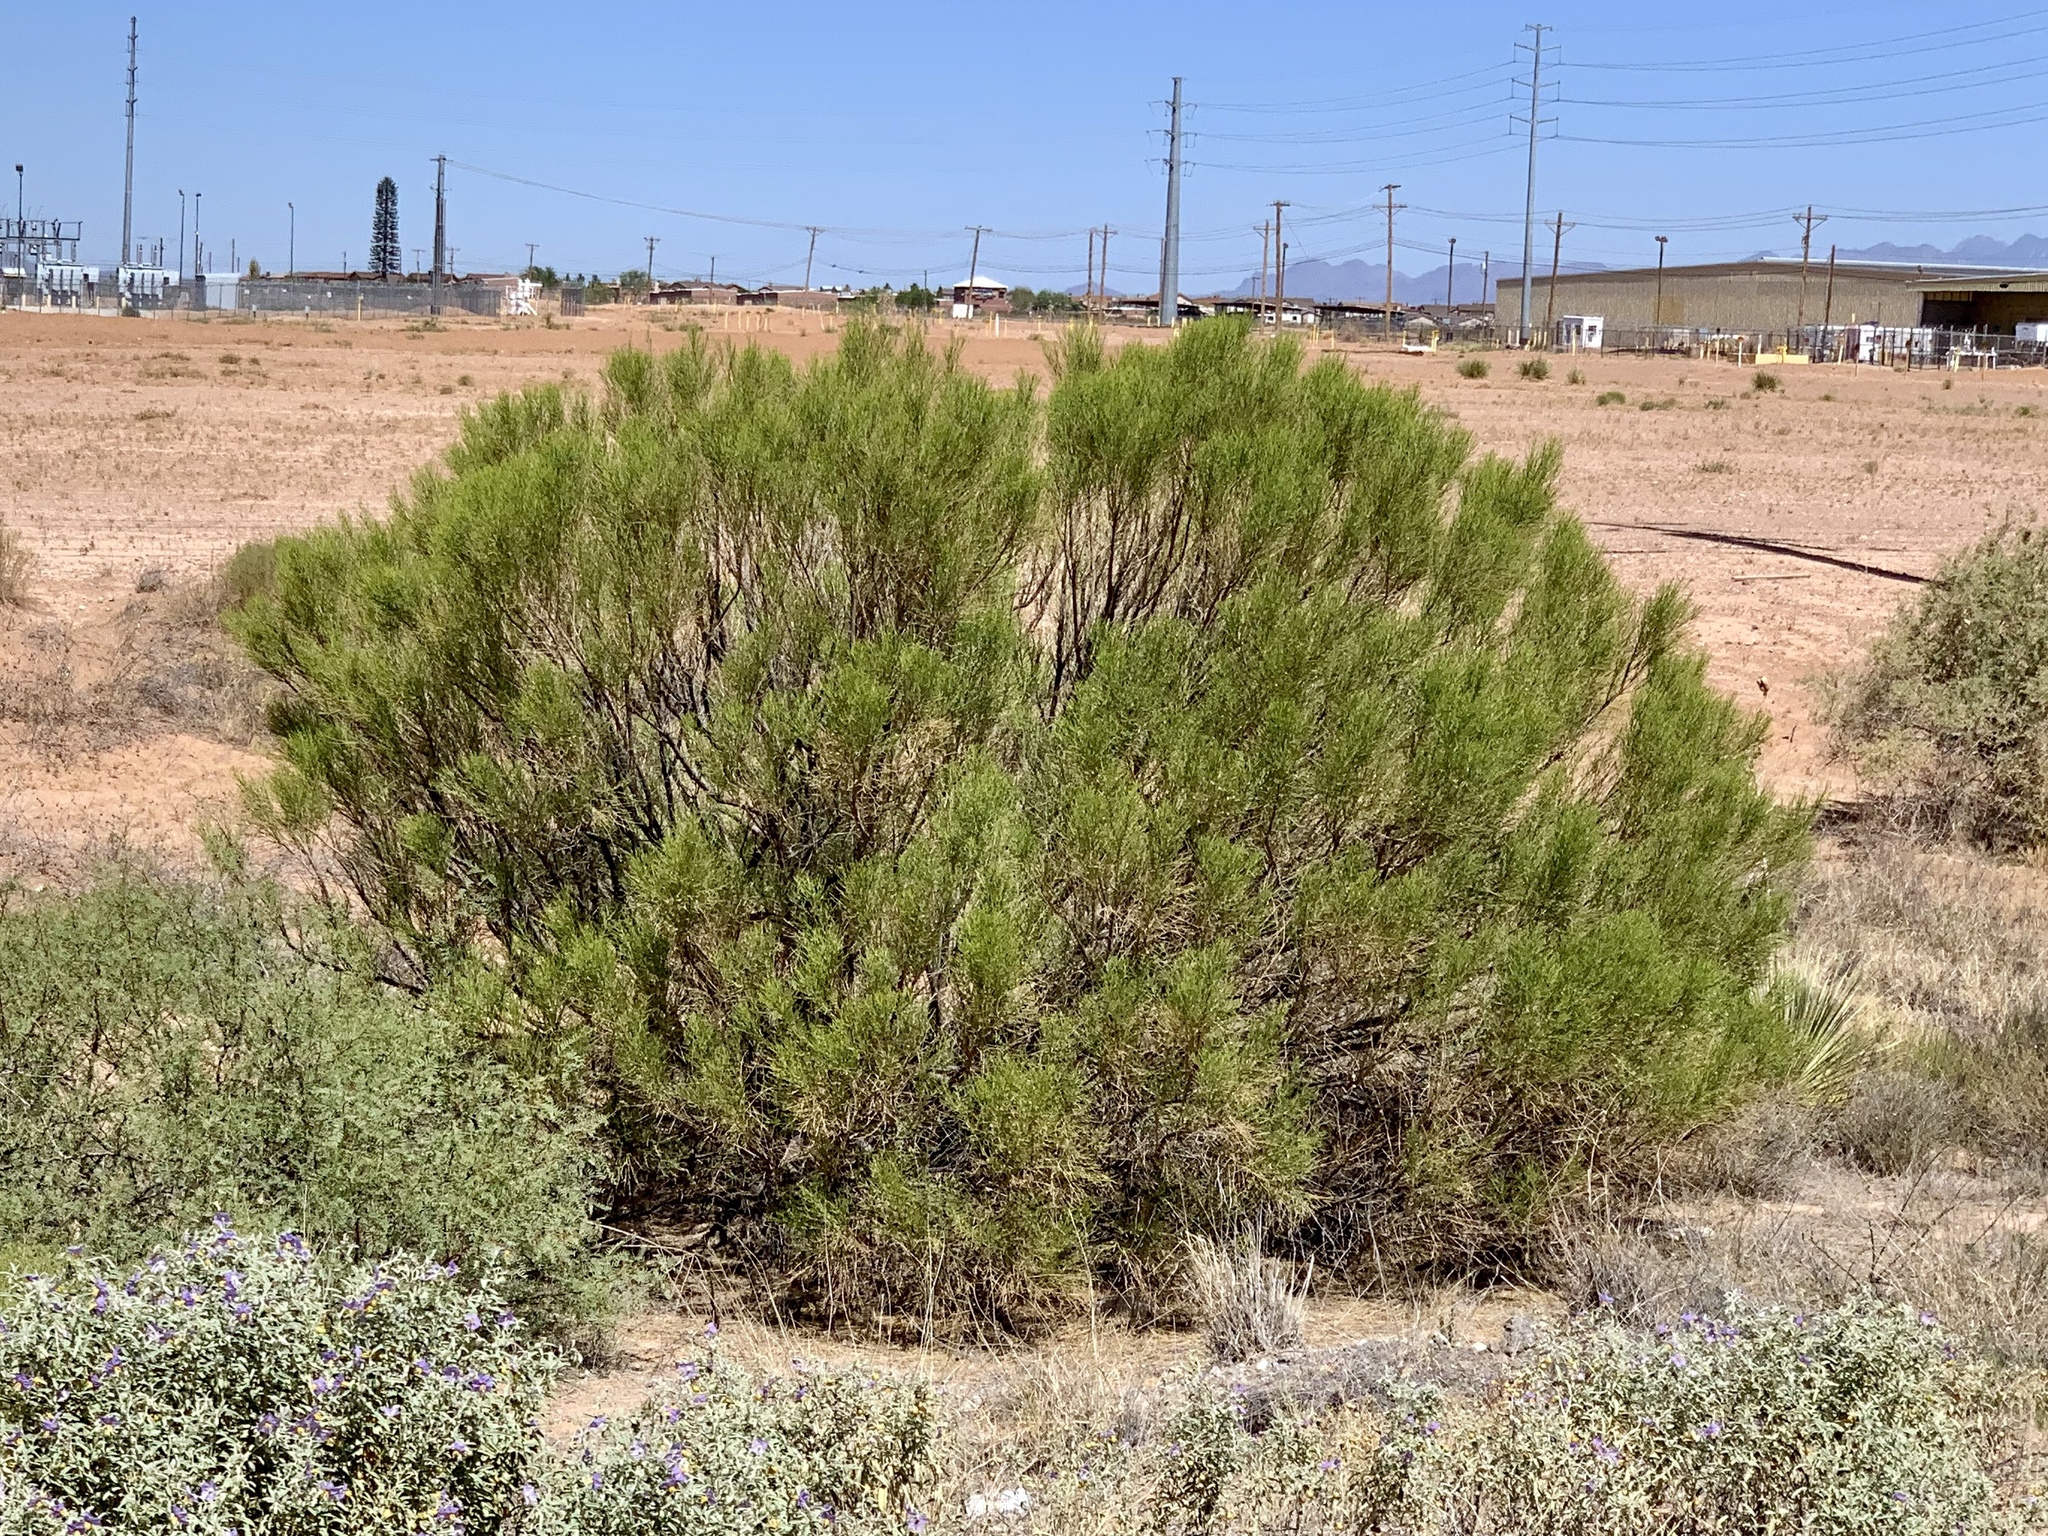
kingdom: Plantae
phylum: Tracheophyta
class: Magnoliopsida
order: Asterales
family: Asteraceae
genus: Baccharis
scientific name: Baccharis sarothroides
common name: Desert-broom
